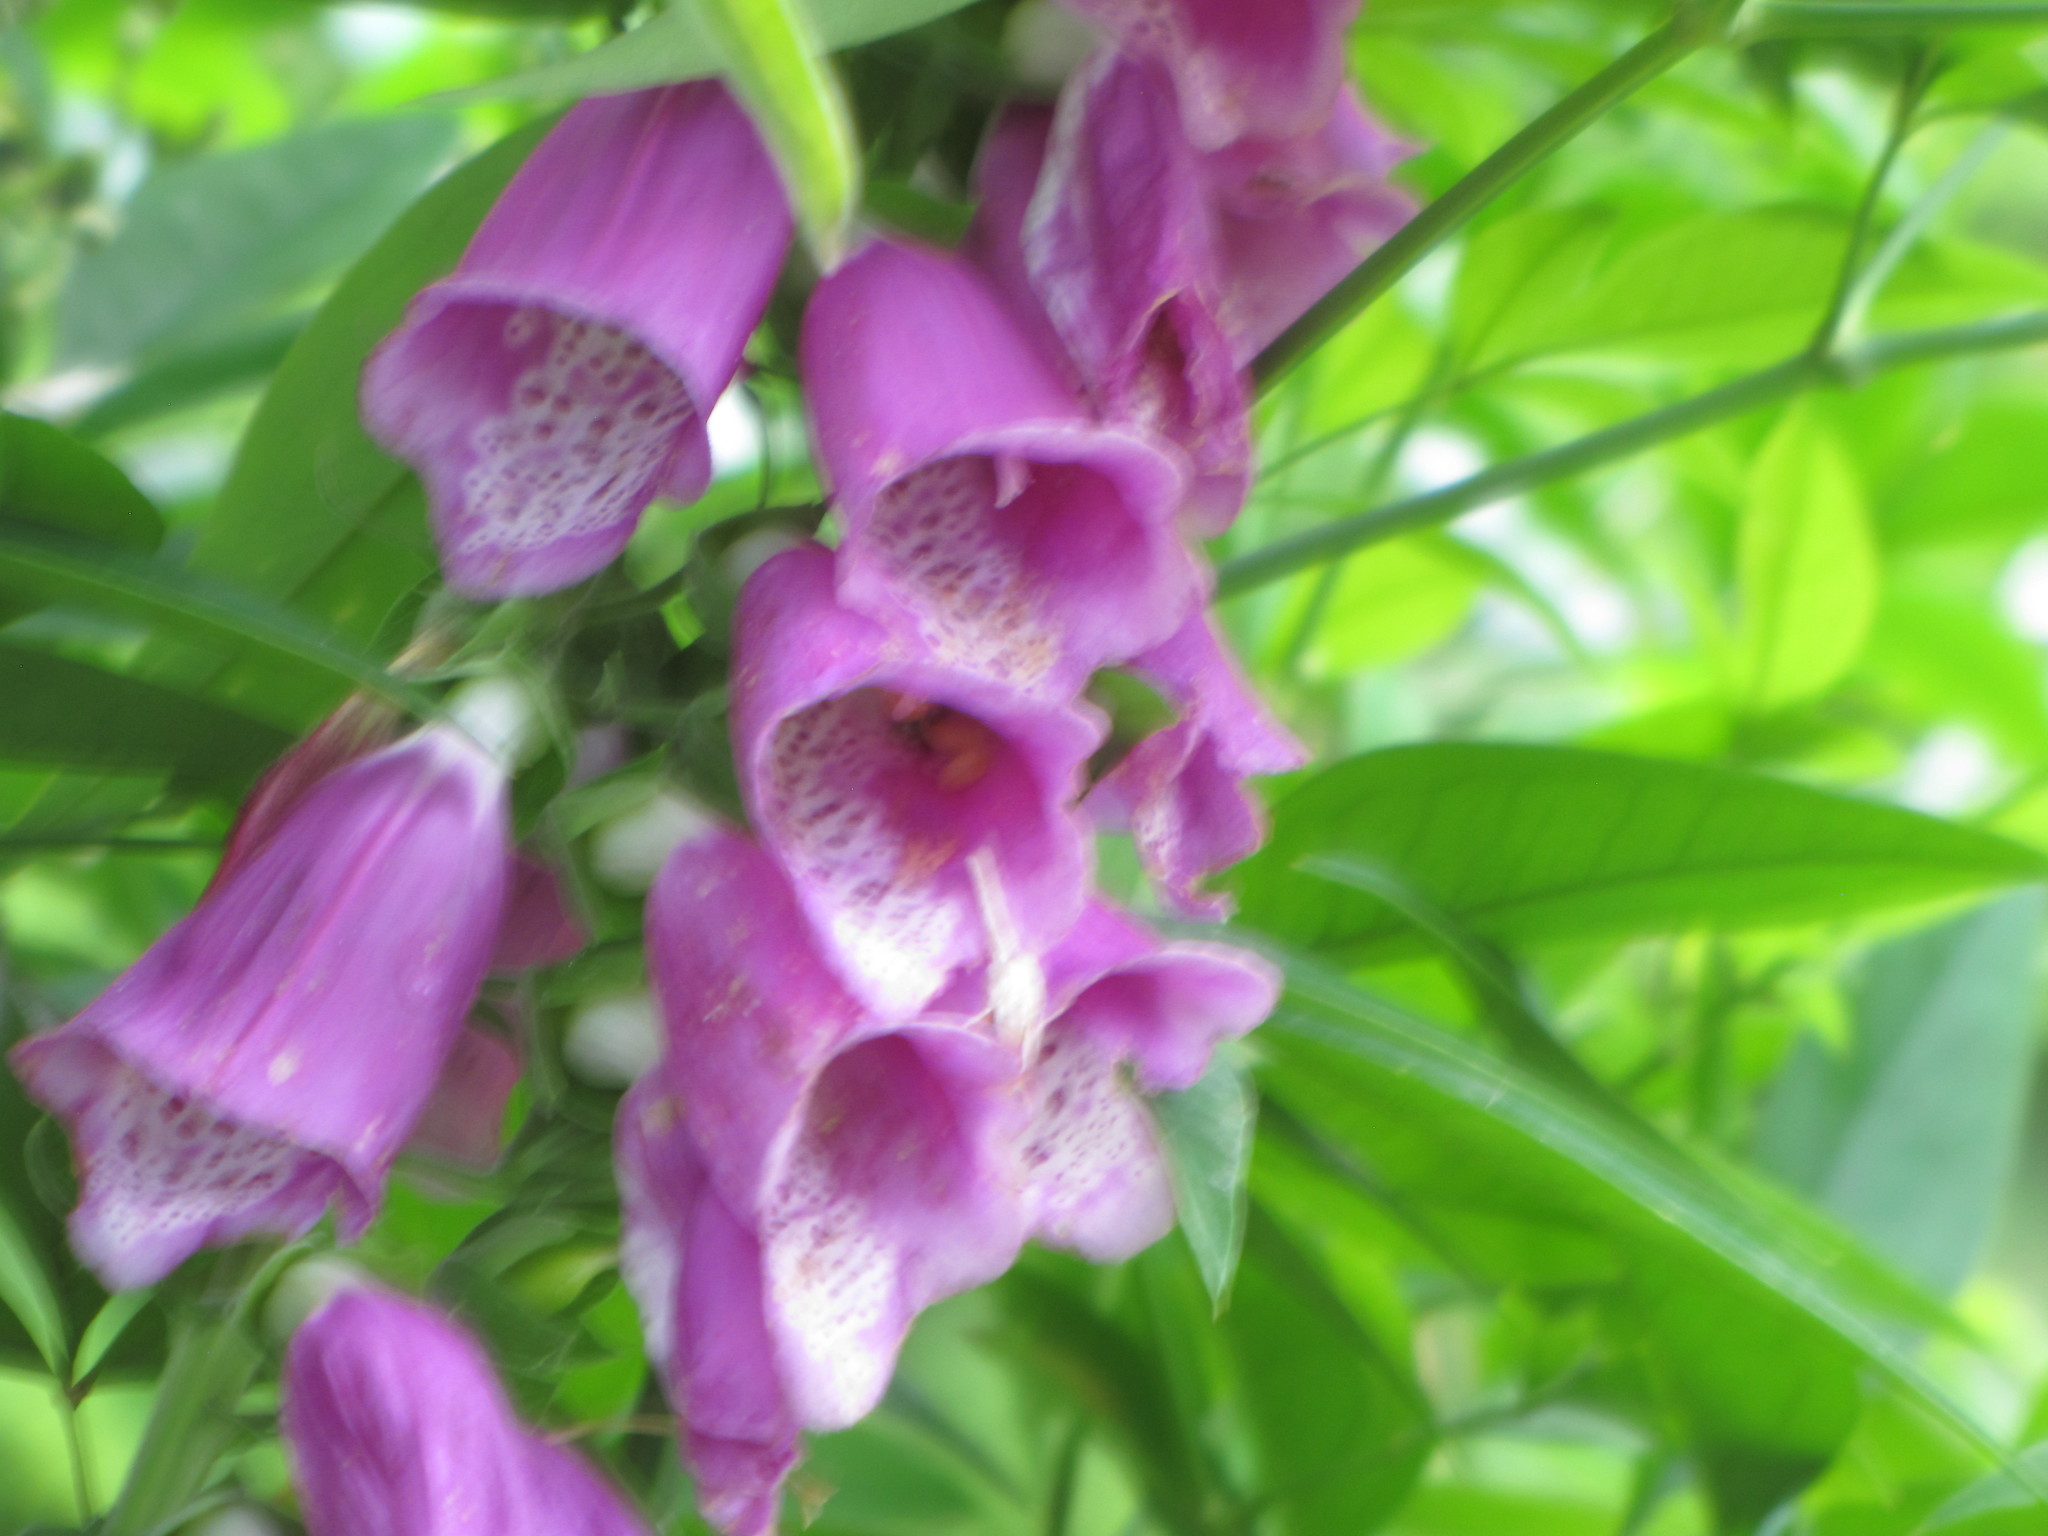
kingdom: Plantae
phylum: Tracheophyta
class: Magnoliopsida
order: Lamiales
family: Plantaginaceae
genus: Digitalis
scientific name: Digitalis purpurea
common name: Foxglove
